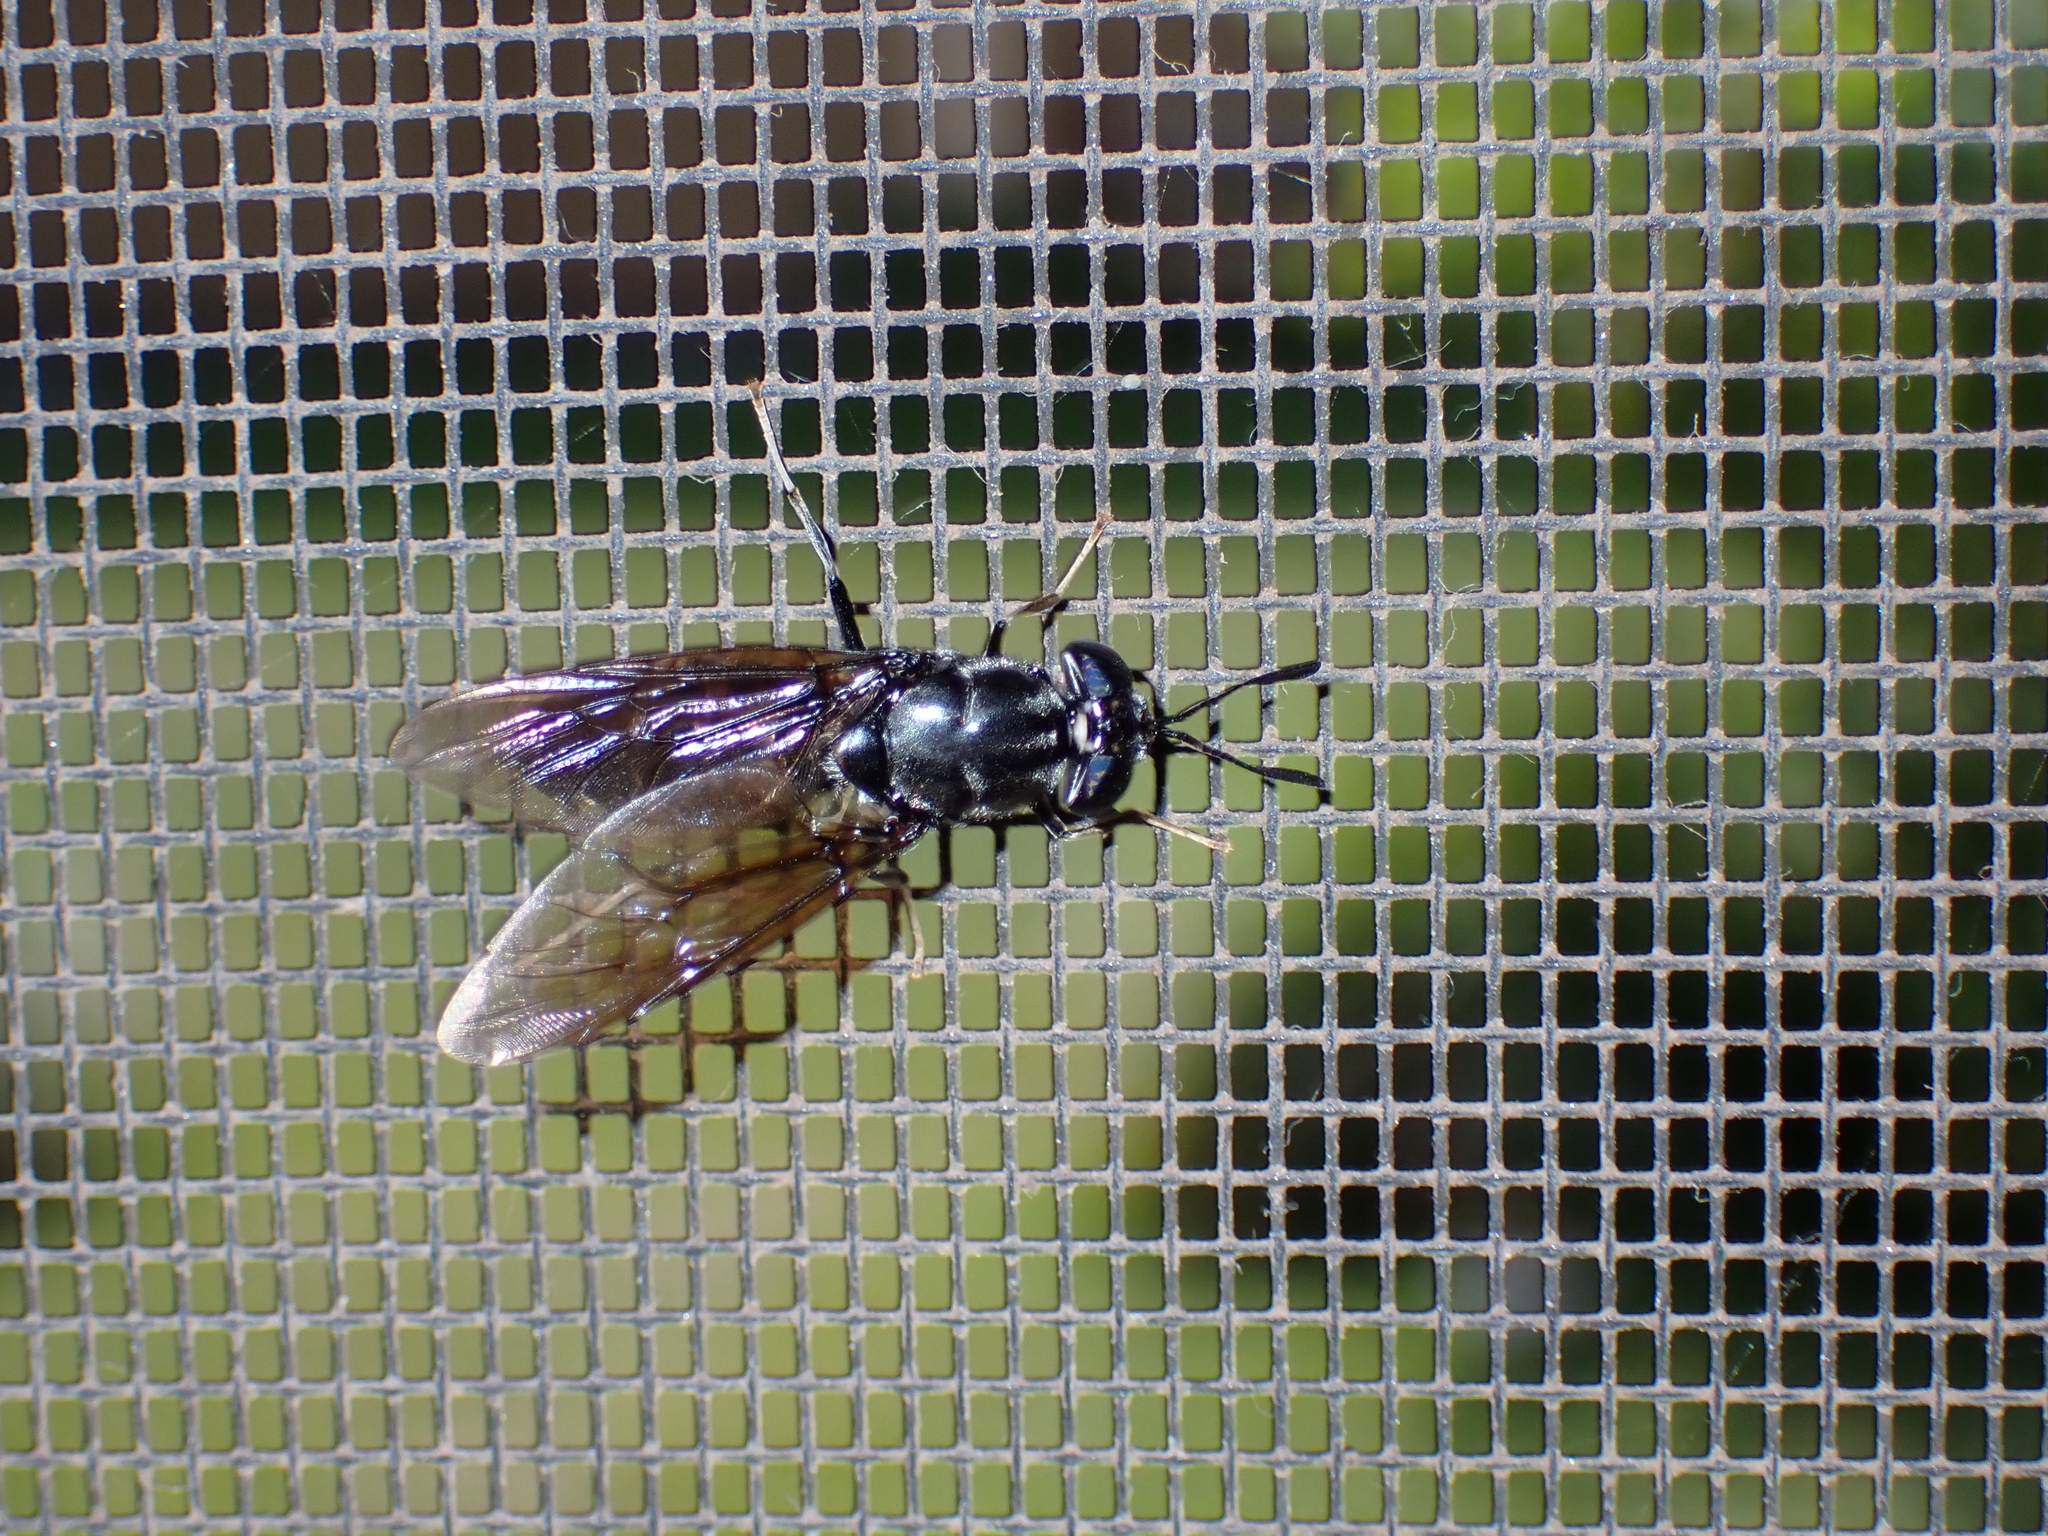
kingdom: Animalia
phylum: Arthropoda
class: Insecta
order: Diptera
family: Stratiomyidae
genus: Hermetia
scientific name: Hermetia illucens
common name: Black soldier fly
